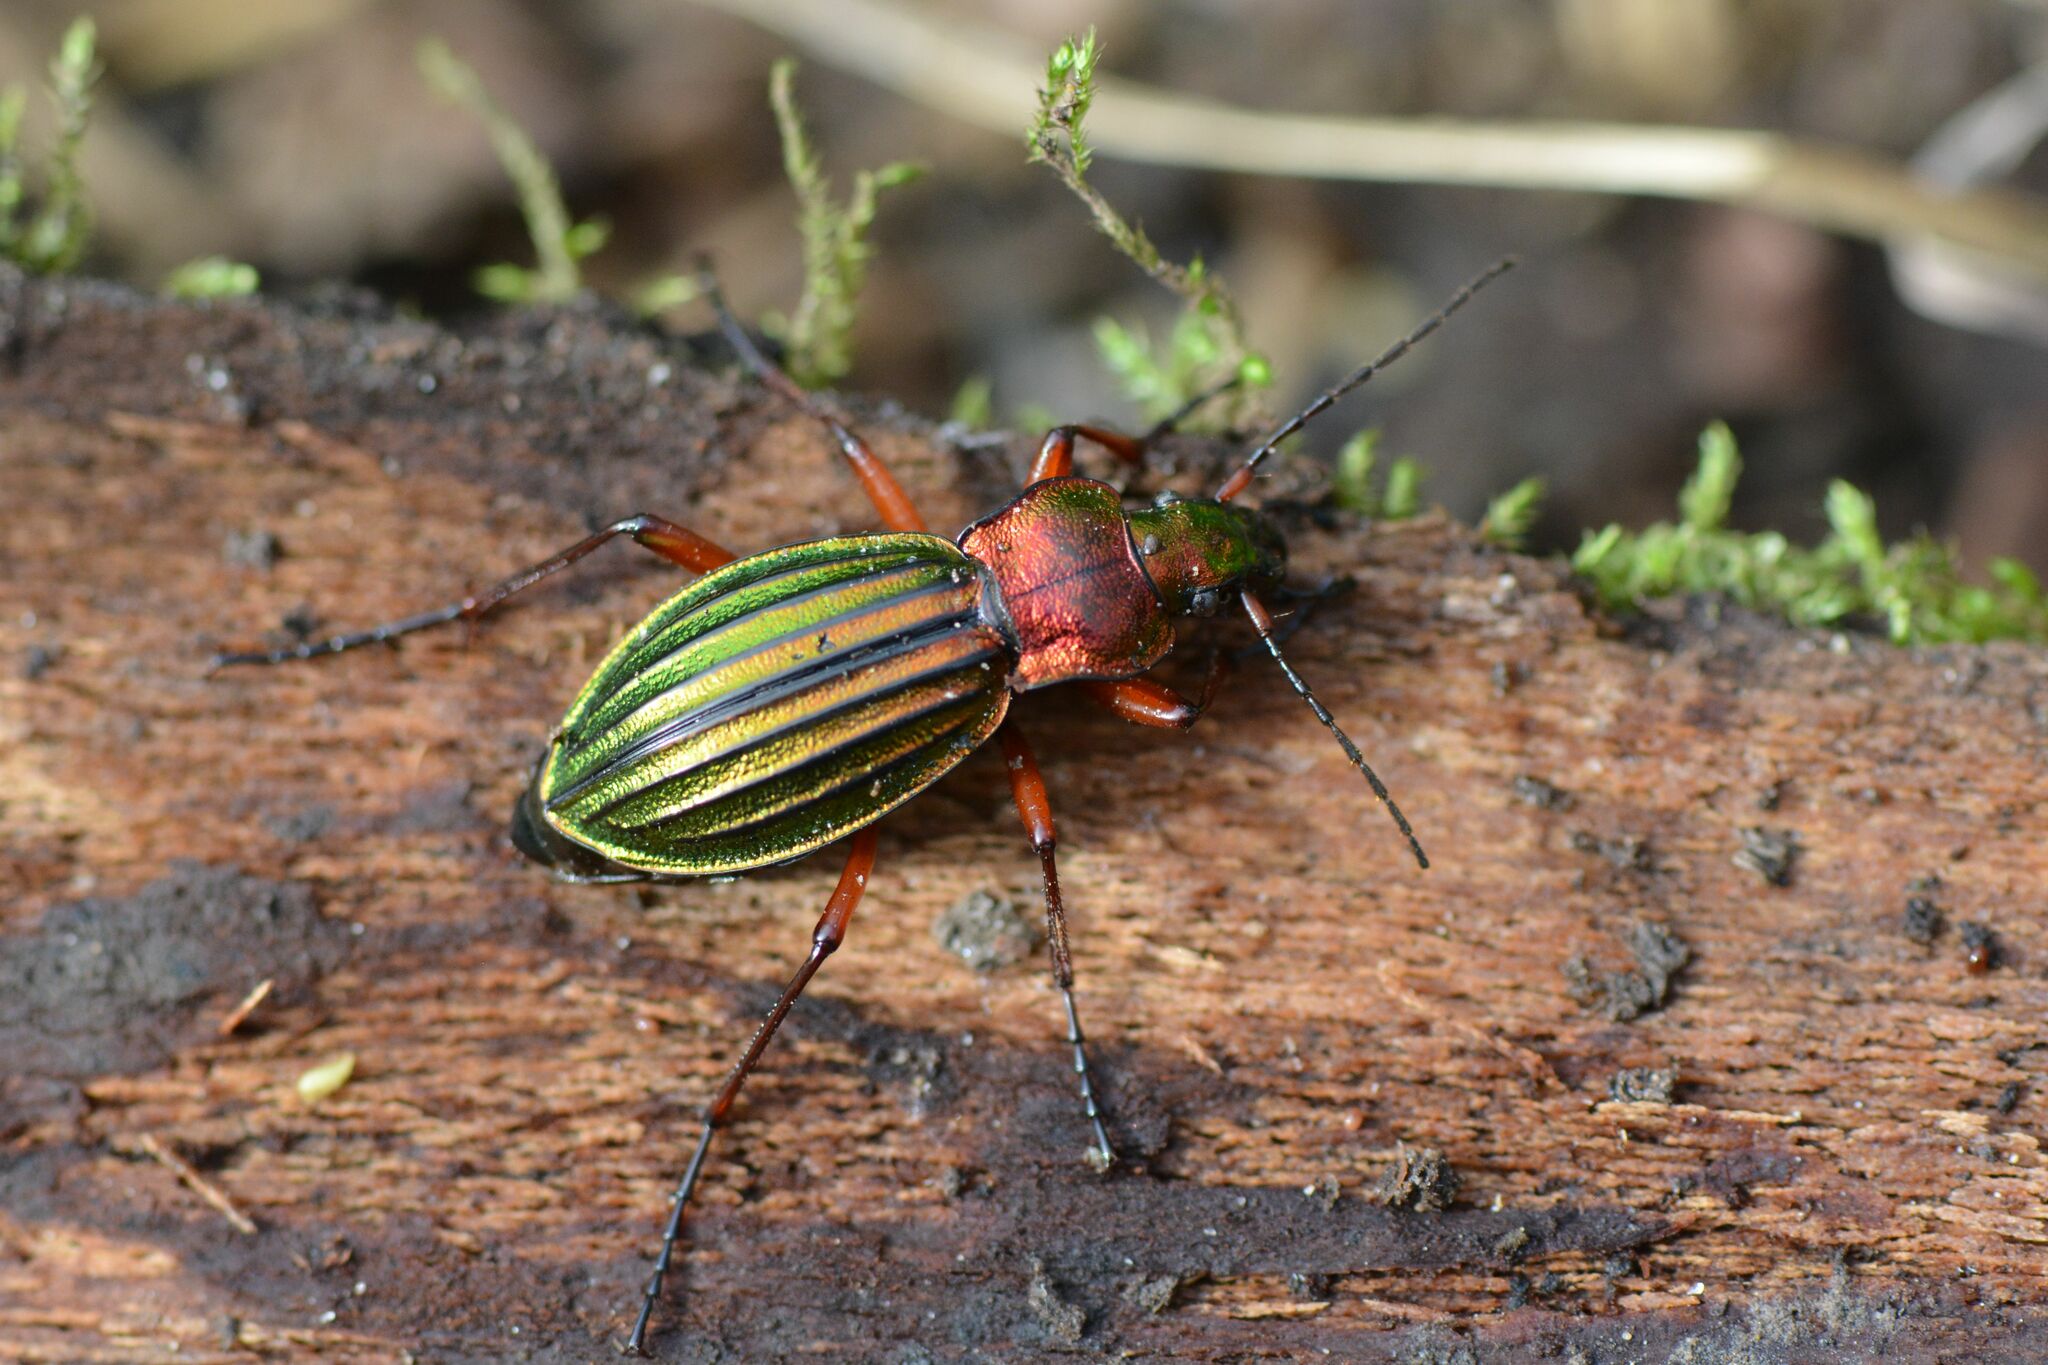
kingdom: Animalia
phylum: Arthropoda
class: Insecta
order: Coleoptera
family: Carabidae
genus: Carabus
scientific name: Carabus auronitens
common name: Carabus auronitens
